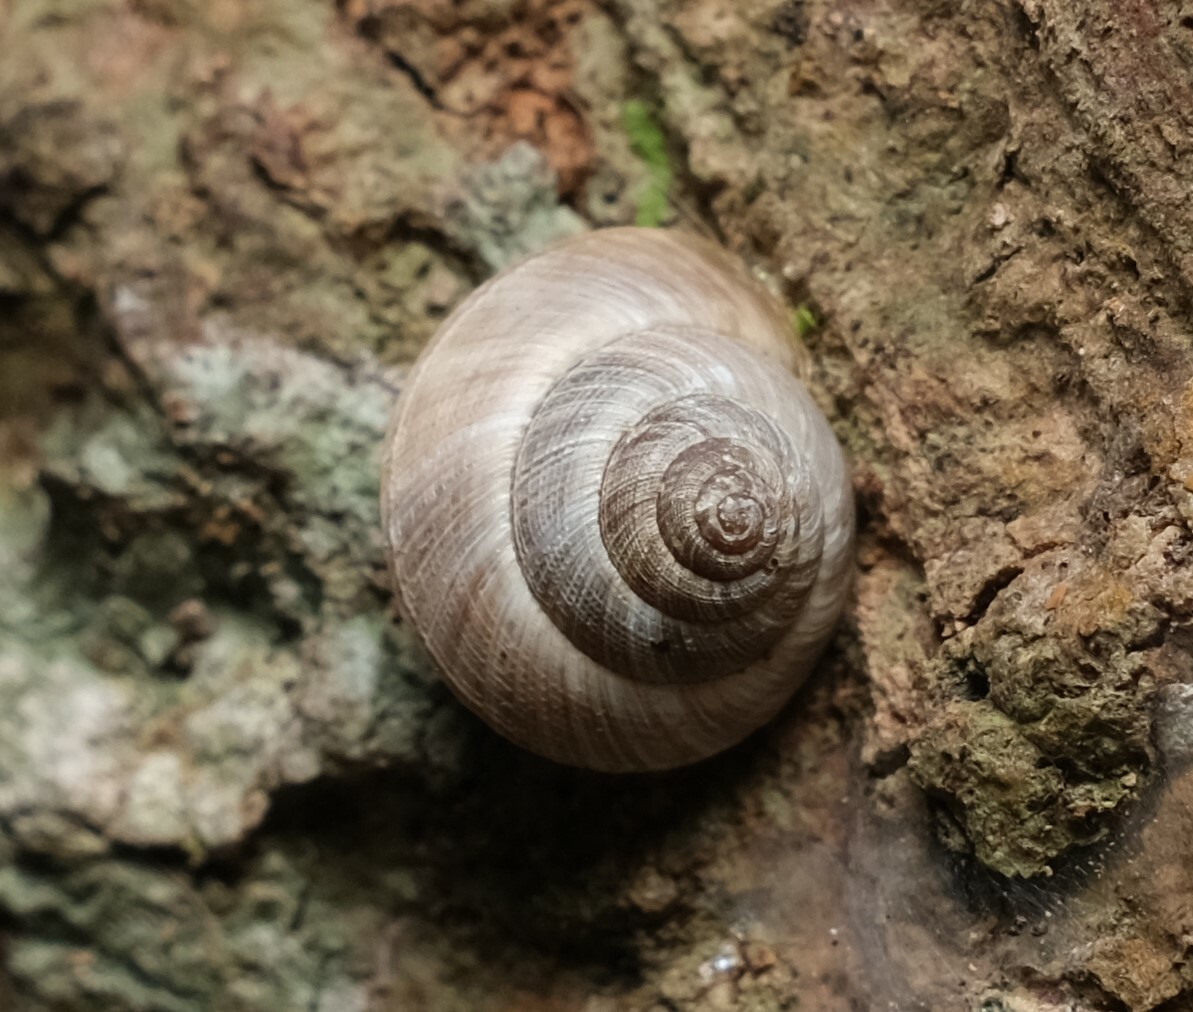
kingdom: Animalia
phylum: Mollusca
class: Gastropoda
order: Stylommatophora
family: Charopidae
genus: Hedleyoconcha
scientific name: Hedleyoconcha delta
